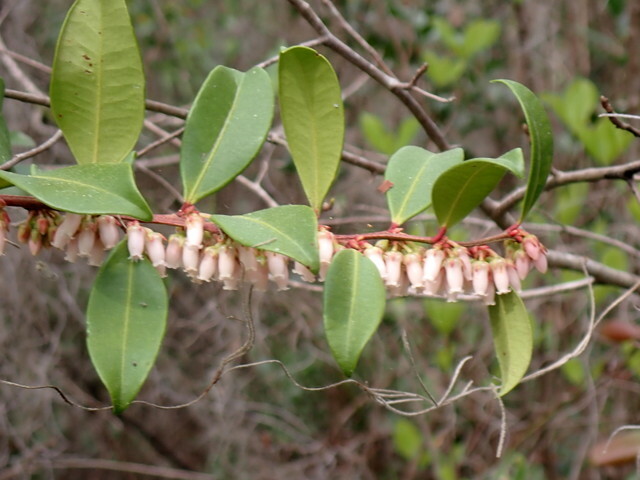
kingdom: Plantae
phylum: Tracheophyta
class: Magnoliopsida
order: Ericales
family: Ericaceae
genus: Lyonia
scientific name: Lyonia lucida
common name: Fetterbush
